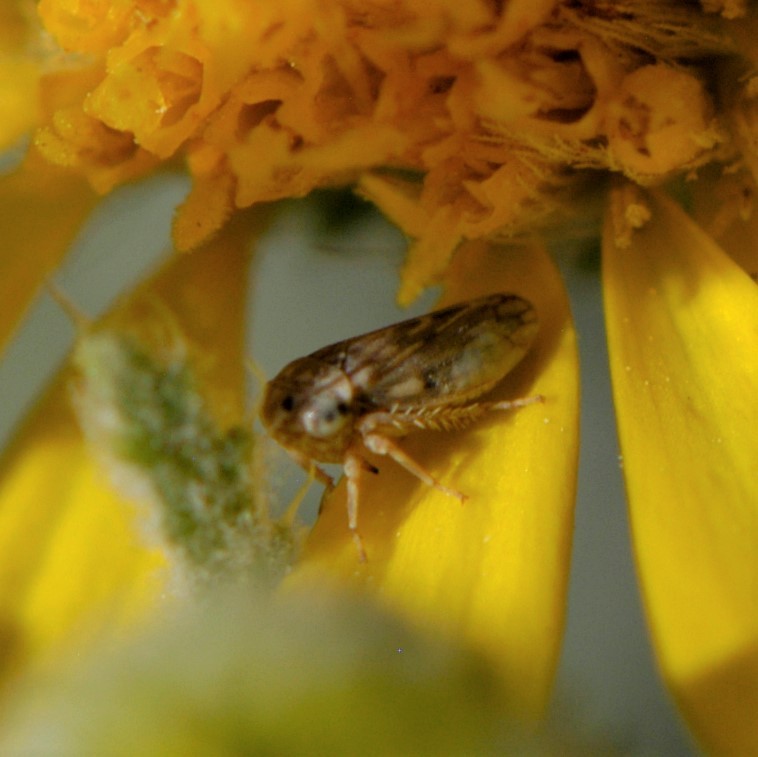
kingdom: Animalia
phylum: Arthropoda
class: Insecta
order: Hemiptera
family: Cicadellidae
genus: Ceratagallia
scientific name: Ceratagallia
